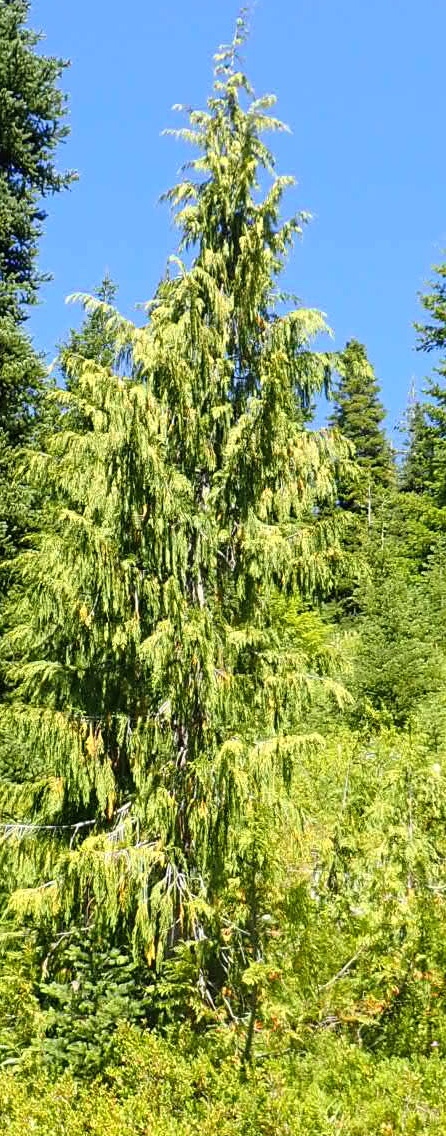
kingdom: Plantae
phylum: Tracheophyta
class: Pinopsida
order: Pinales
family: Cupressaceae
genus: Xanthocyparis
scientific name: Xanthocyparis nootkatensis
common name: Nootka cypress
